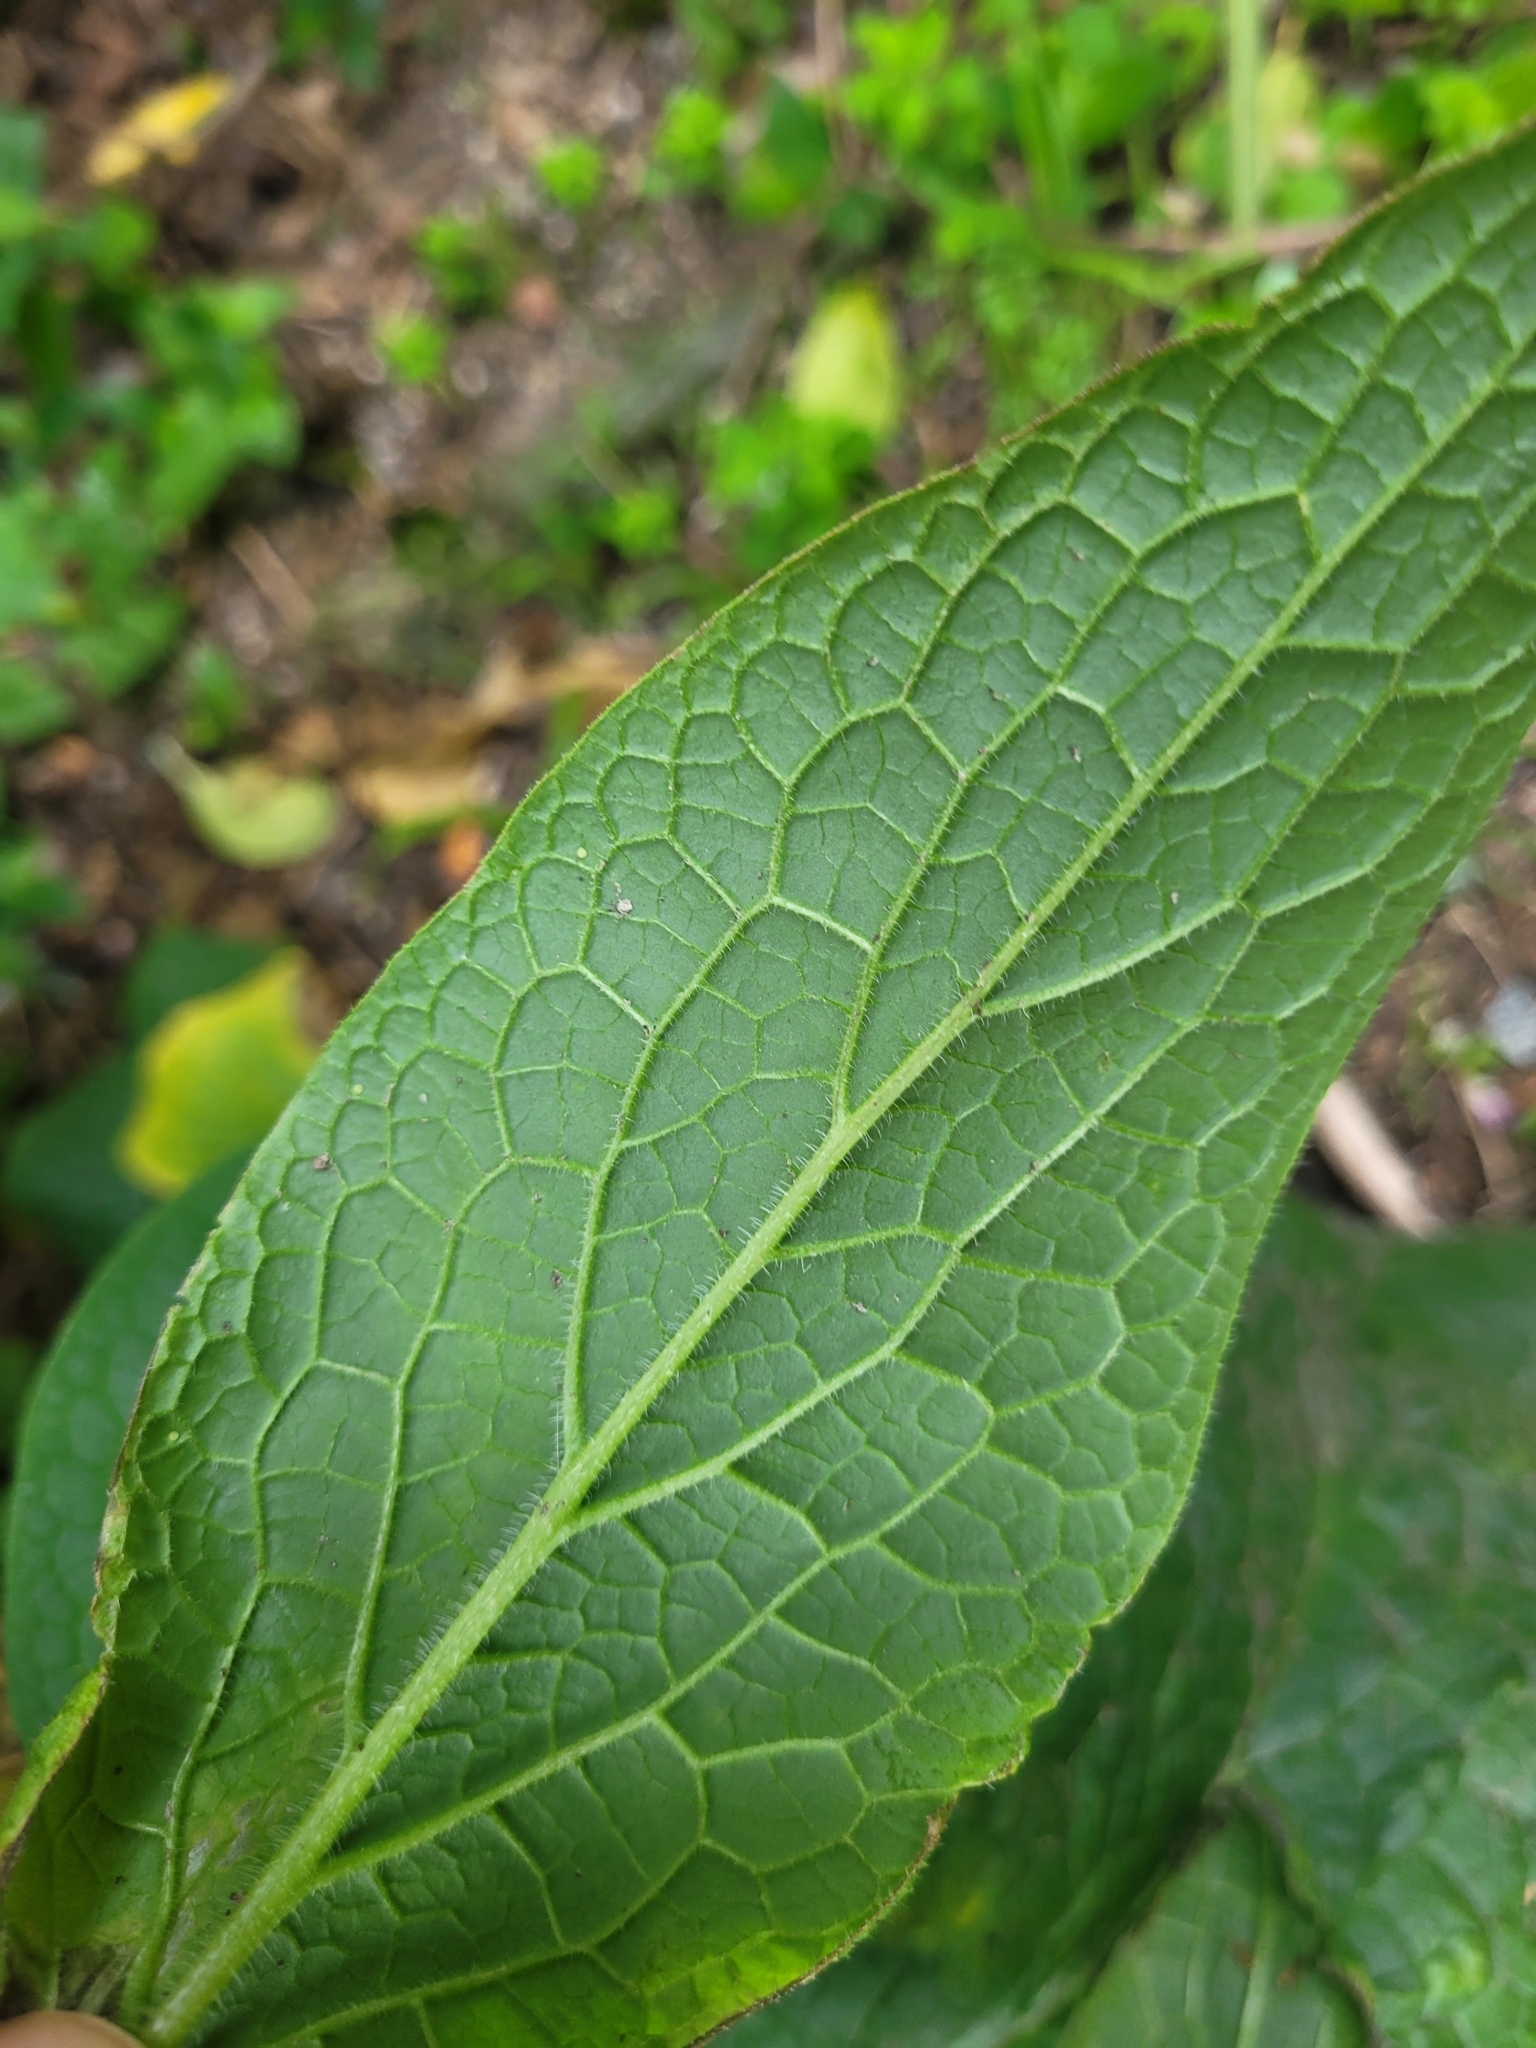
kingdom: Plantae
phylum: Tracheophyta
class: Magnoliopsida
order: Boraginales
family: Boraginaceae
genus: Symphytum
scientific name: Symphytum officinale
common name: Common comfrey
